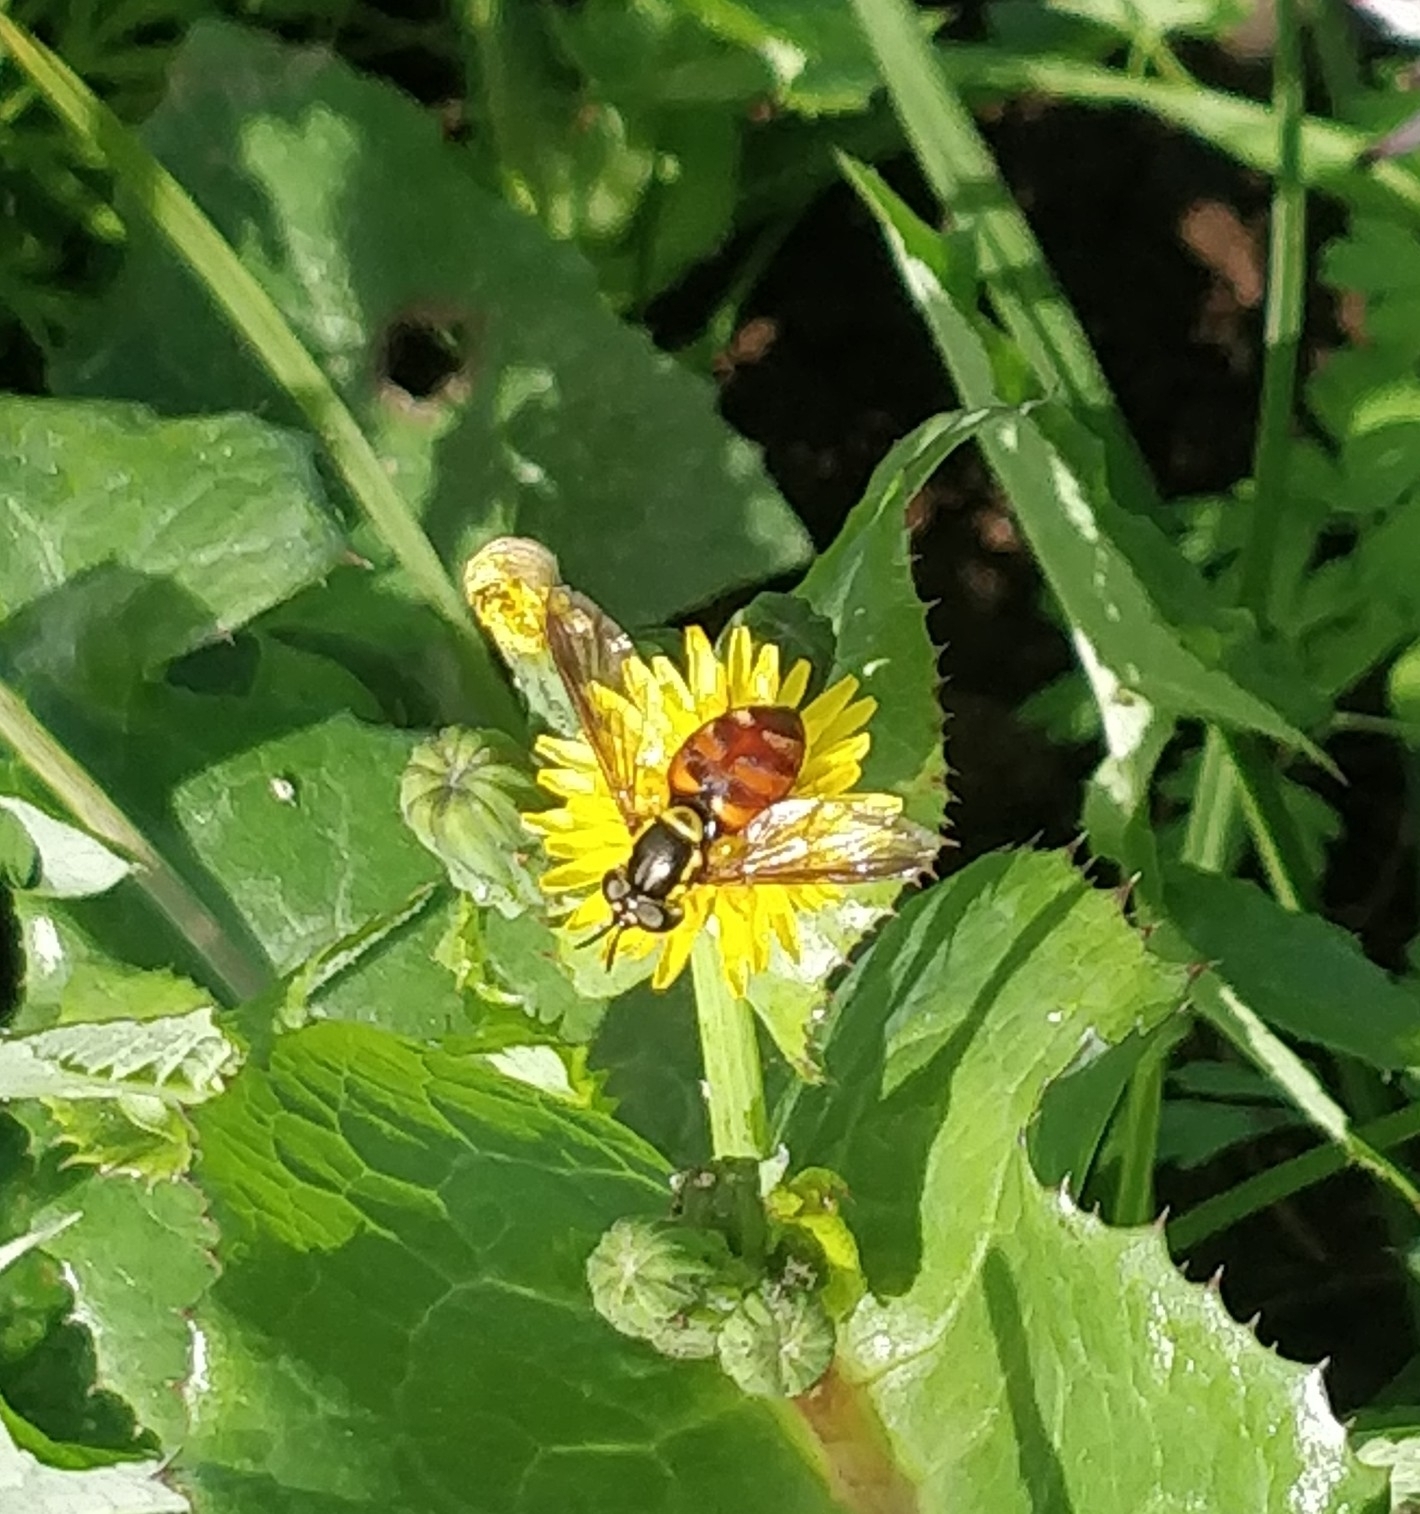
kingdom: Animalia
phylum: Arthropoda
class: Insecta
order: Diptera
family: Syrphidae
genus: Chrysotoxum
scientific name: Chrysotoxum triarcuatum
